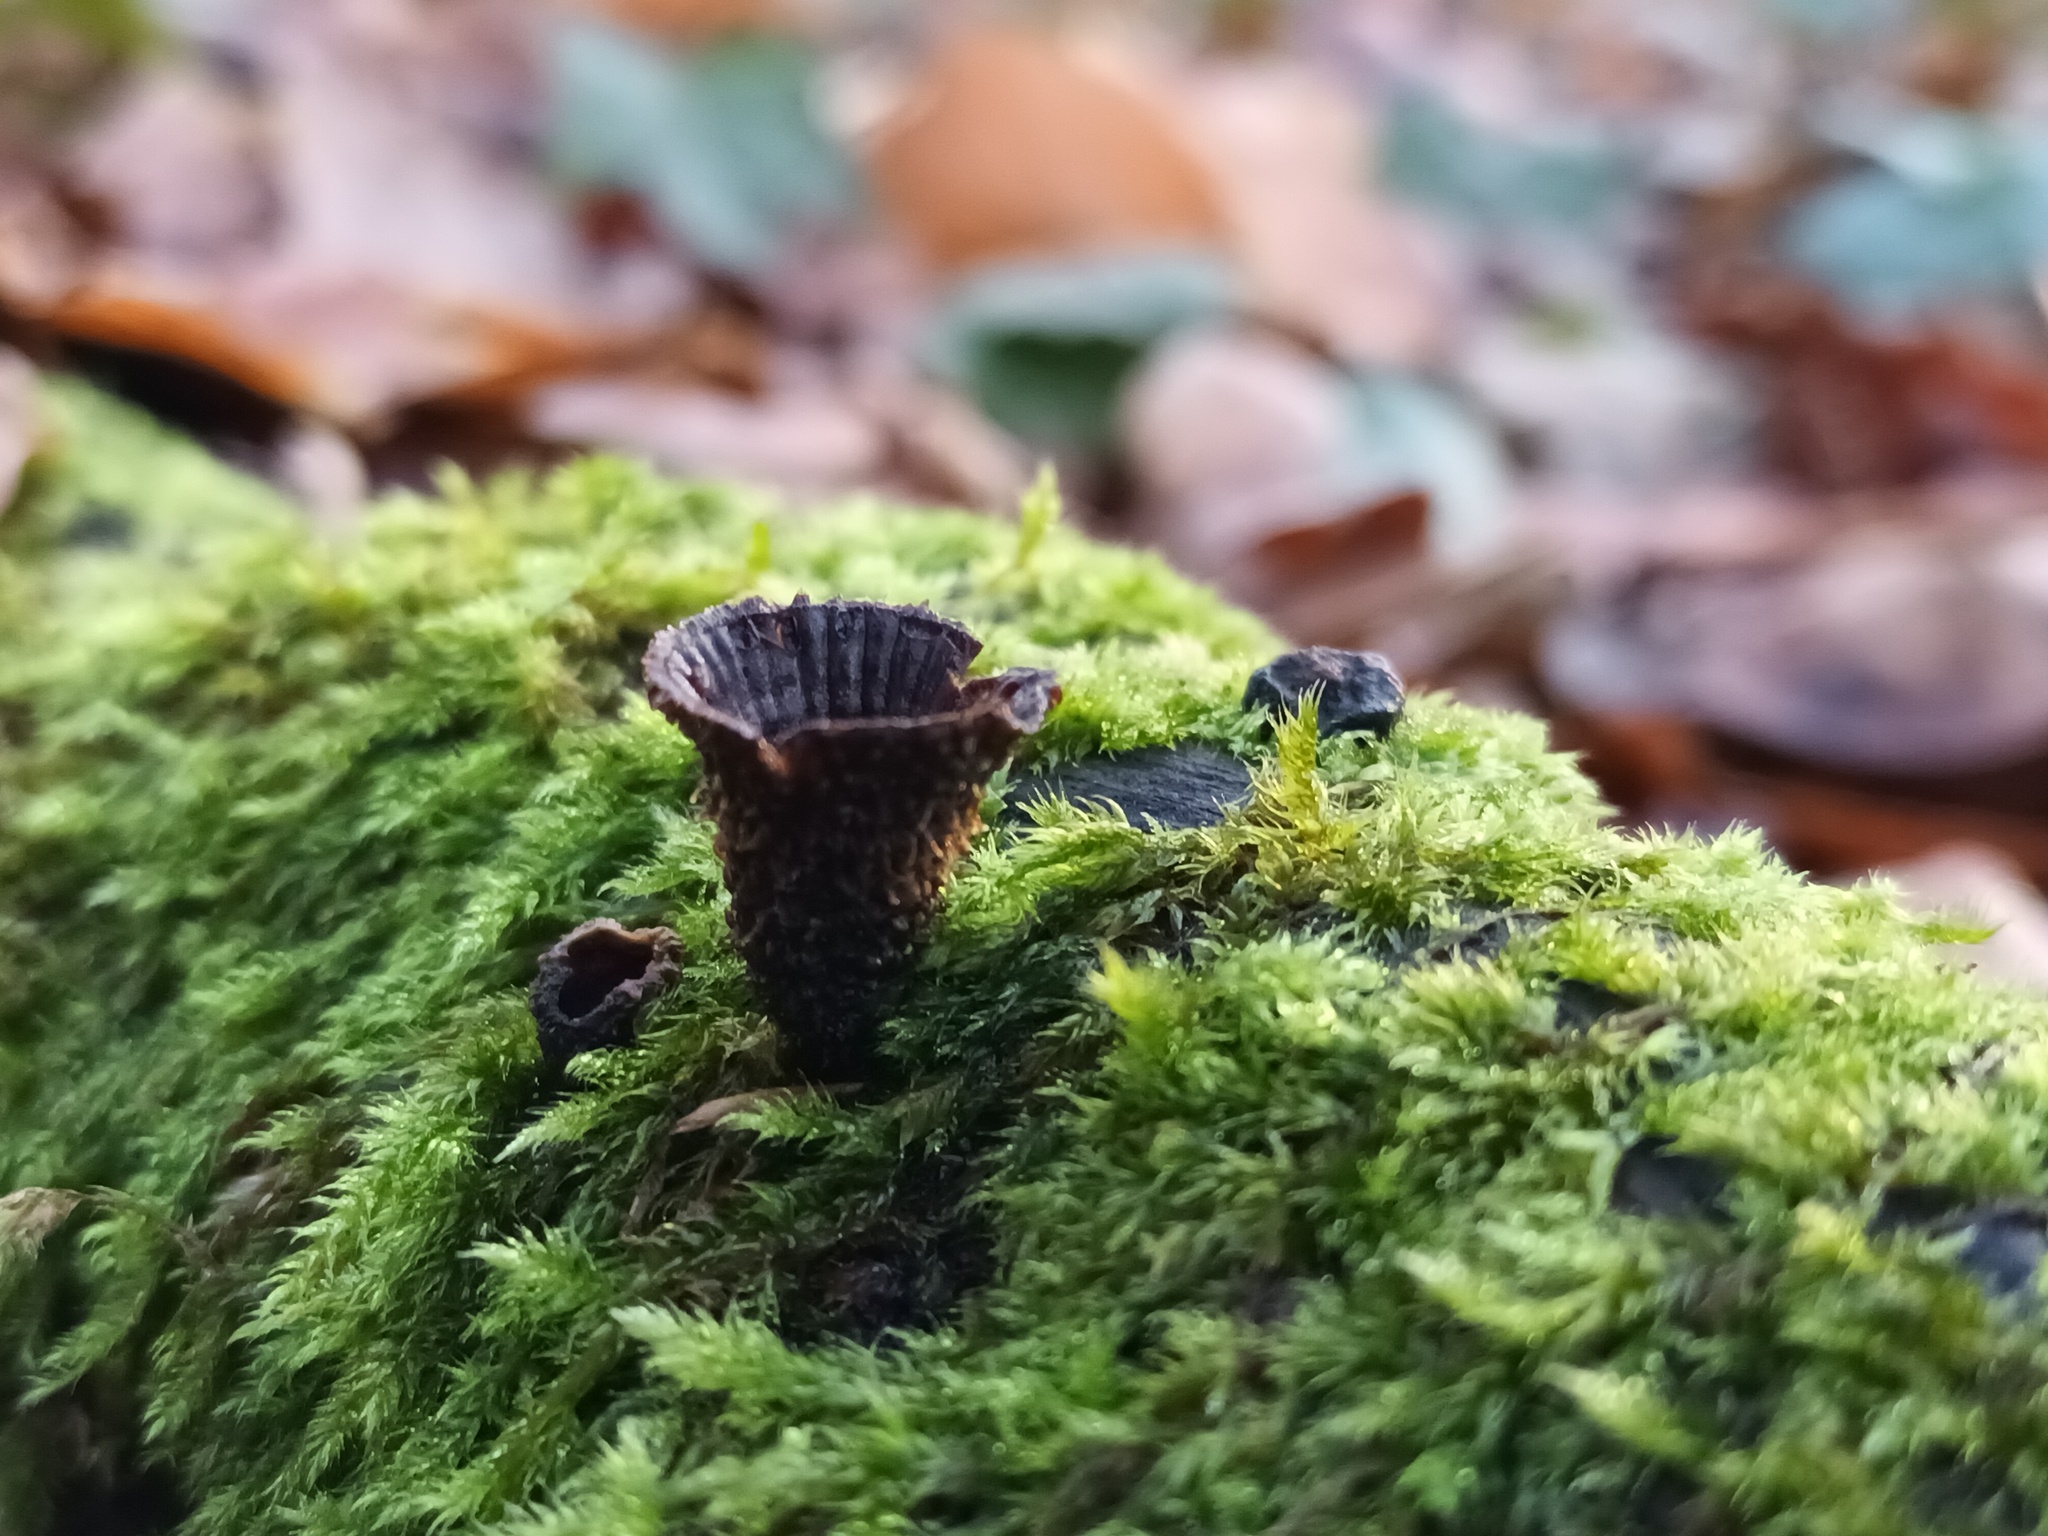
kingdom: Fungi
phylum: Basidiomycota
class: Agaricomycetes
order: Agaricales
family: Agaricaceae
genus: Cyathus
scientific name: Cyathus striatus
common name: Fluted bird's nest
